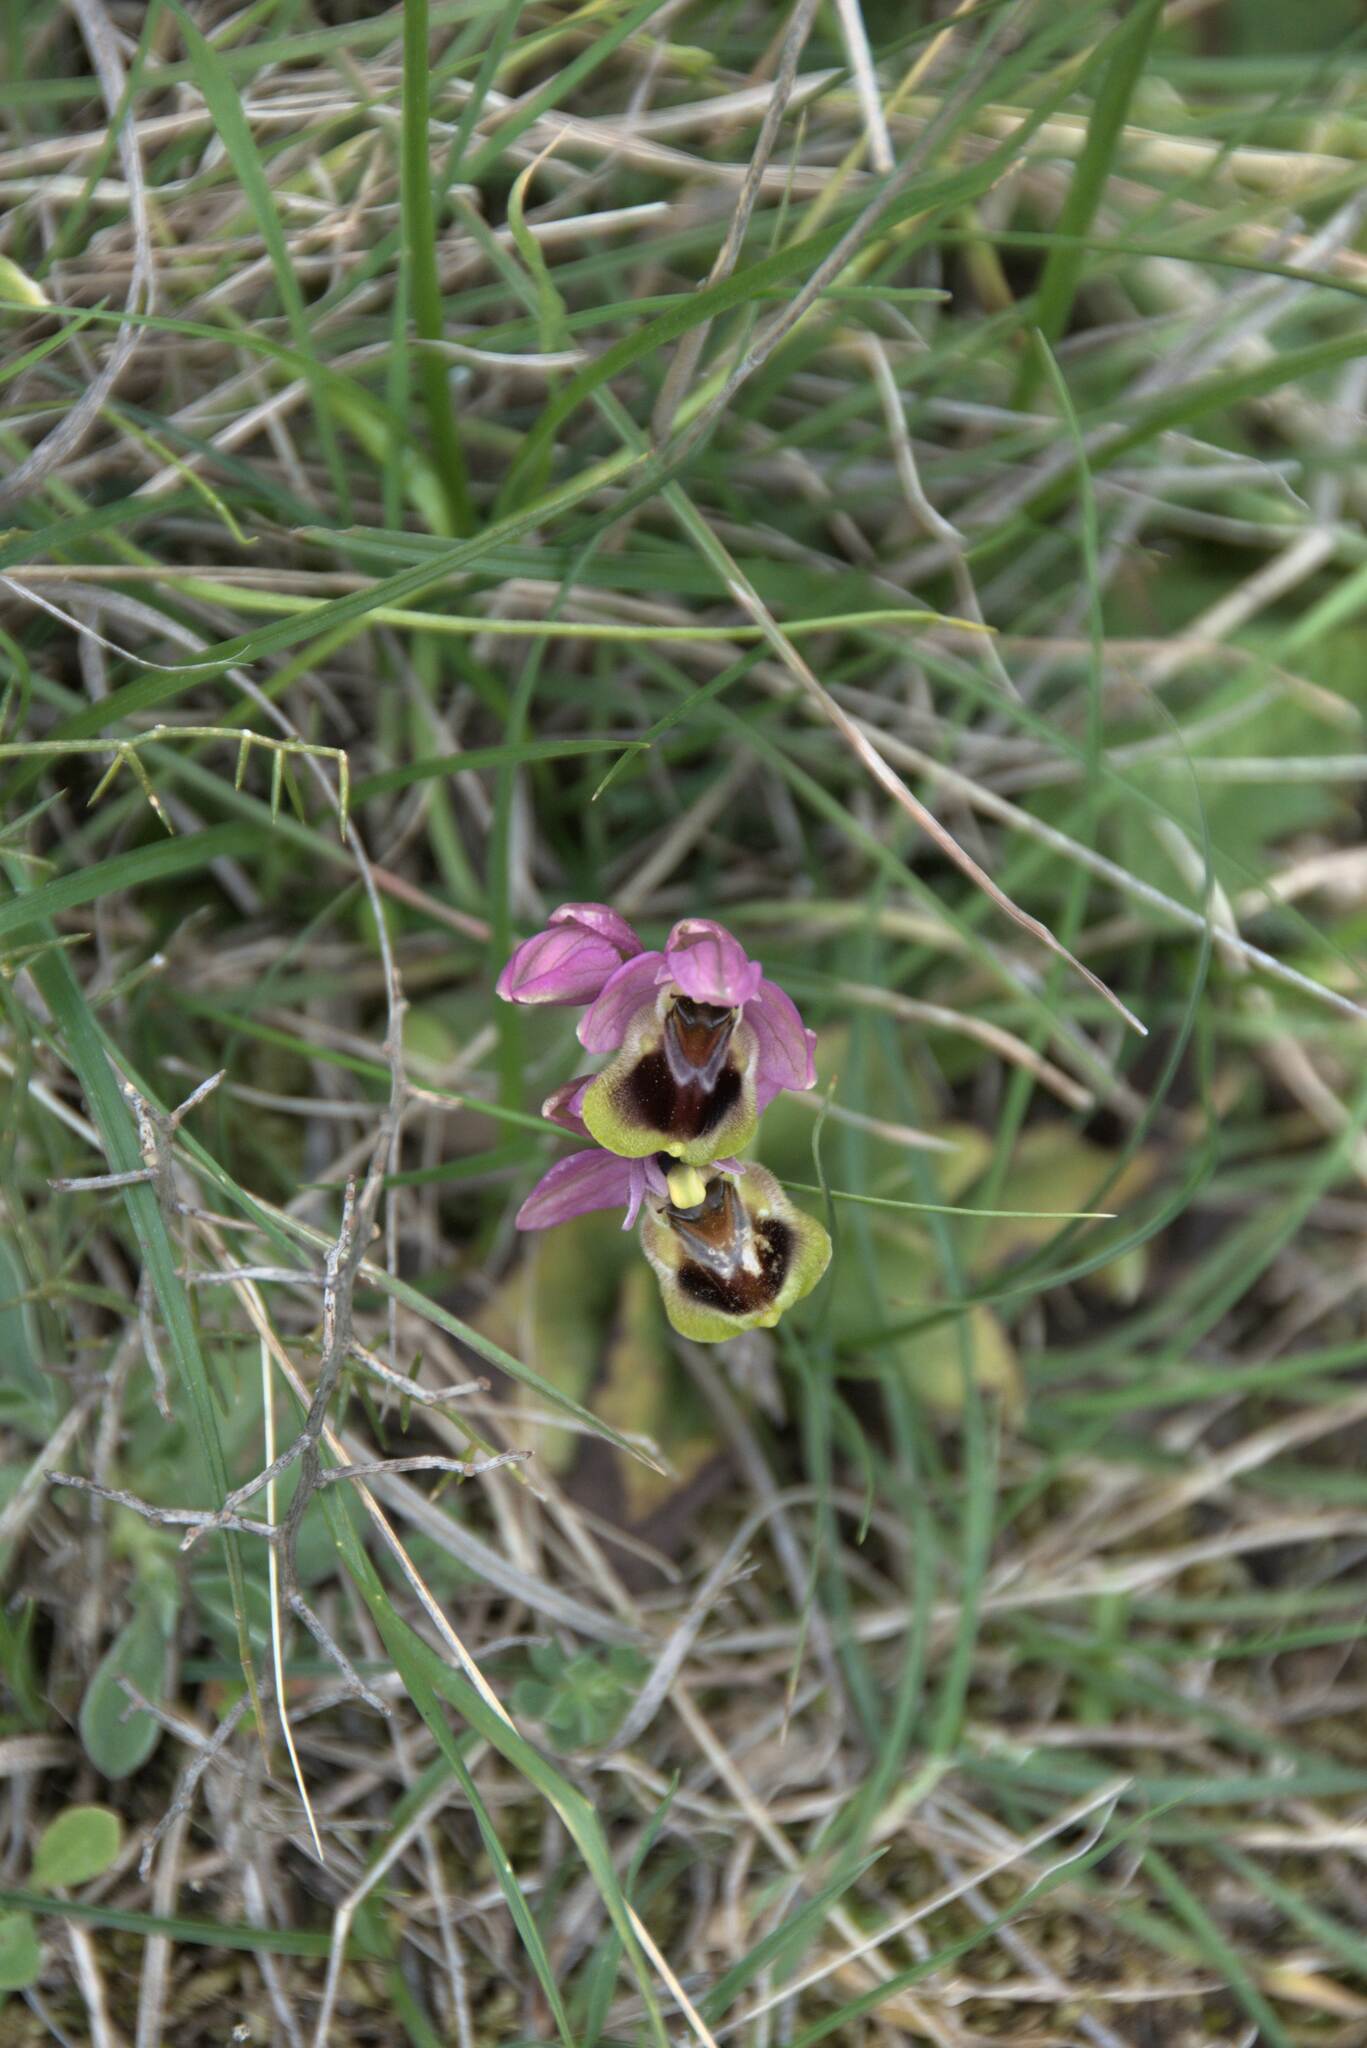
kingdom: Plantae
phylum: Tracheophyta
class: Liliopsida
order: Asparagales
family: Orchidaceae
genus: Ophrys
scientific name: Ophrys tenthredinifera
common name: Sawfly orchid
